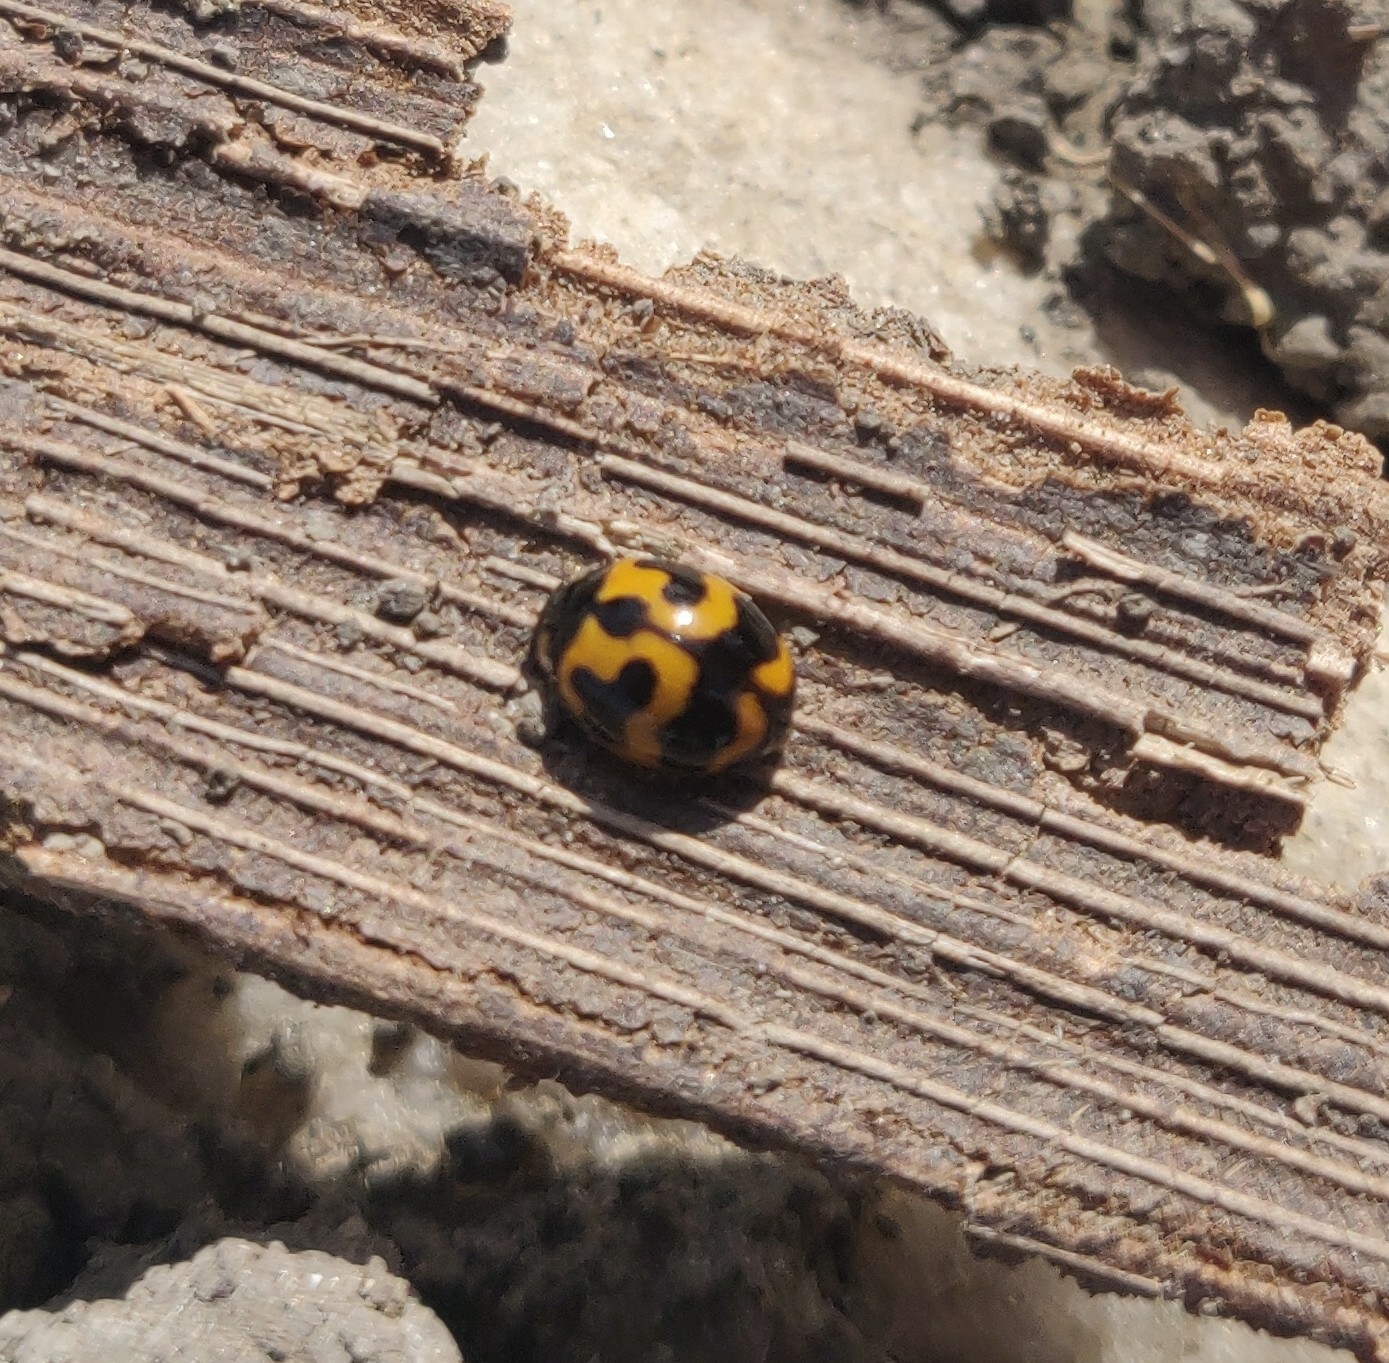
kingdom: Animalia
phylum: Arthropoda
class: Insecta
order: Coleoptera
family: Coccinellidae
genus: Coccinella
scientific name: Coccinella transversalis
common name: Transverse lady beetle
